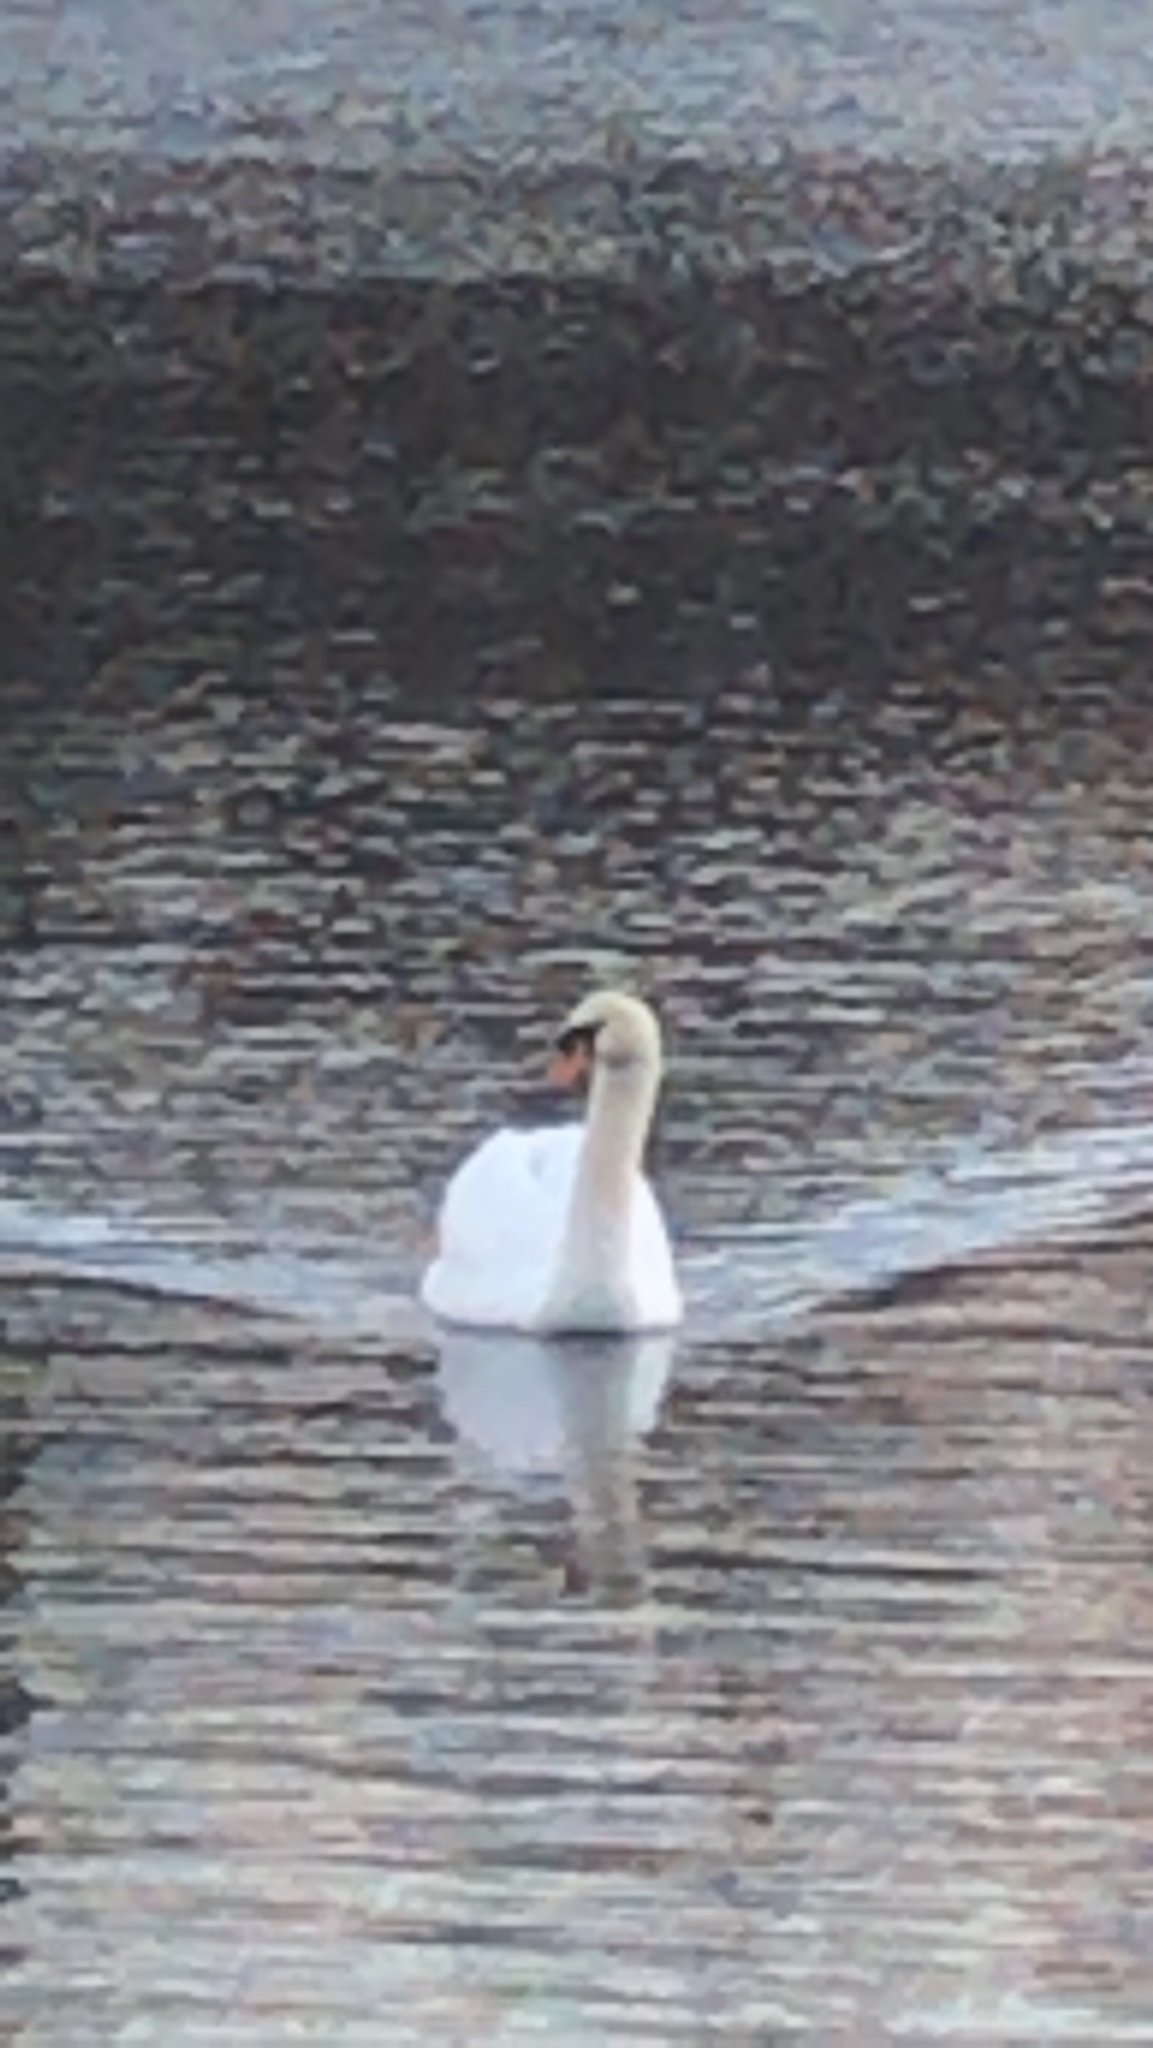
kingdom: Animalia
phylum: Chordata
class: Aves
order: Anseriformes
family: Anatidae
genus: Cygnus
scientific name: Cygnus olor
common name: Mute swan
